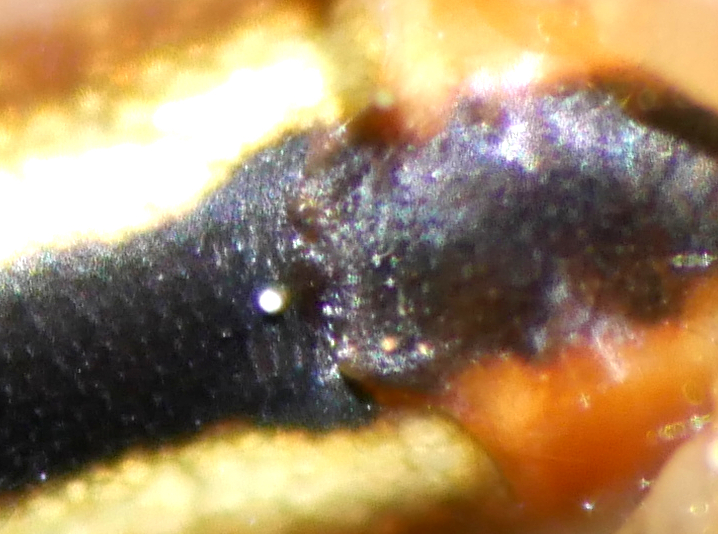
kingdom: Animalia
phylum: Arthropoda
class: Arachnida
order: Araneae
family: Tetragnathidae
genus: Tetragnatha
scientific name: Tetragnatha extensa
